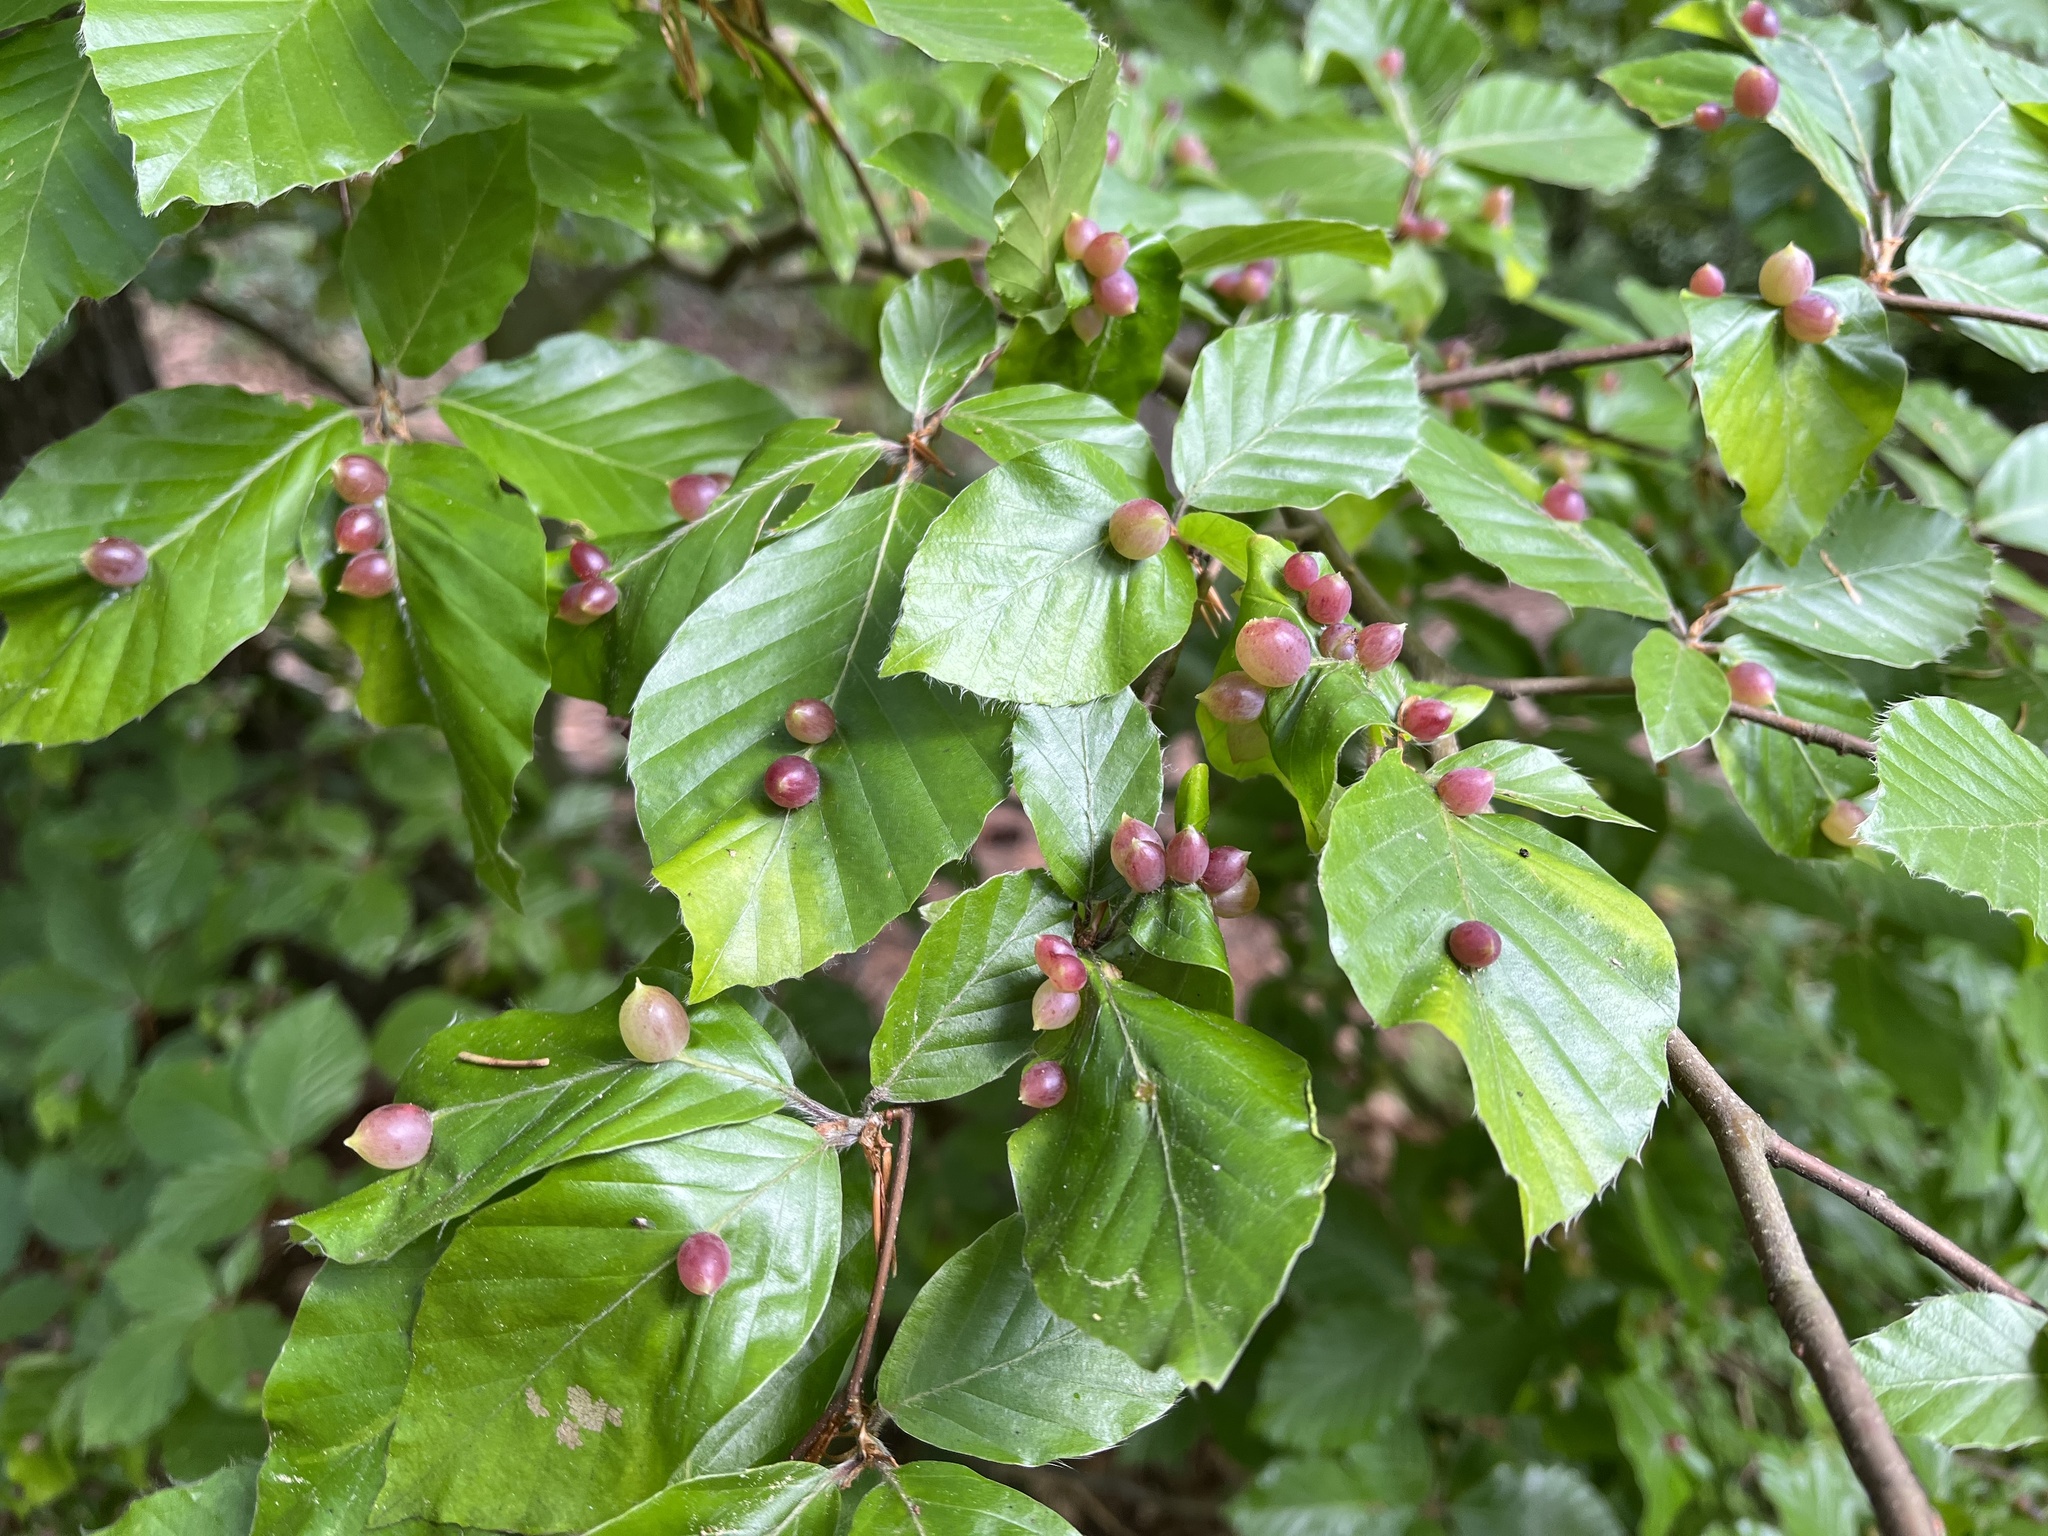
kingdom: Animalia
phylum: Arthropoda
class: Insecta
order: Diptera
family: Cecidomyiidae
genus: Mikiola
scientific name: Mikiola fagi
